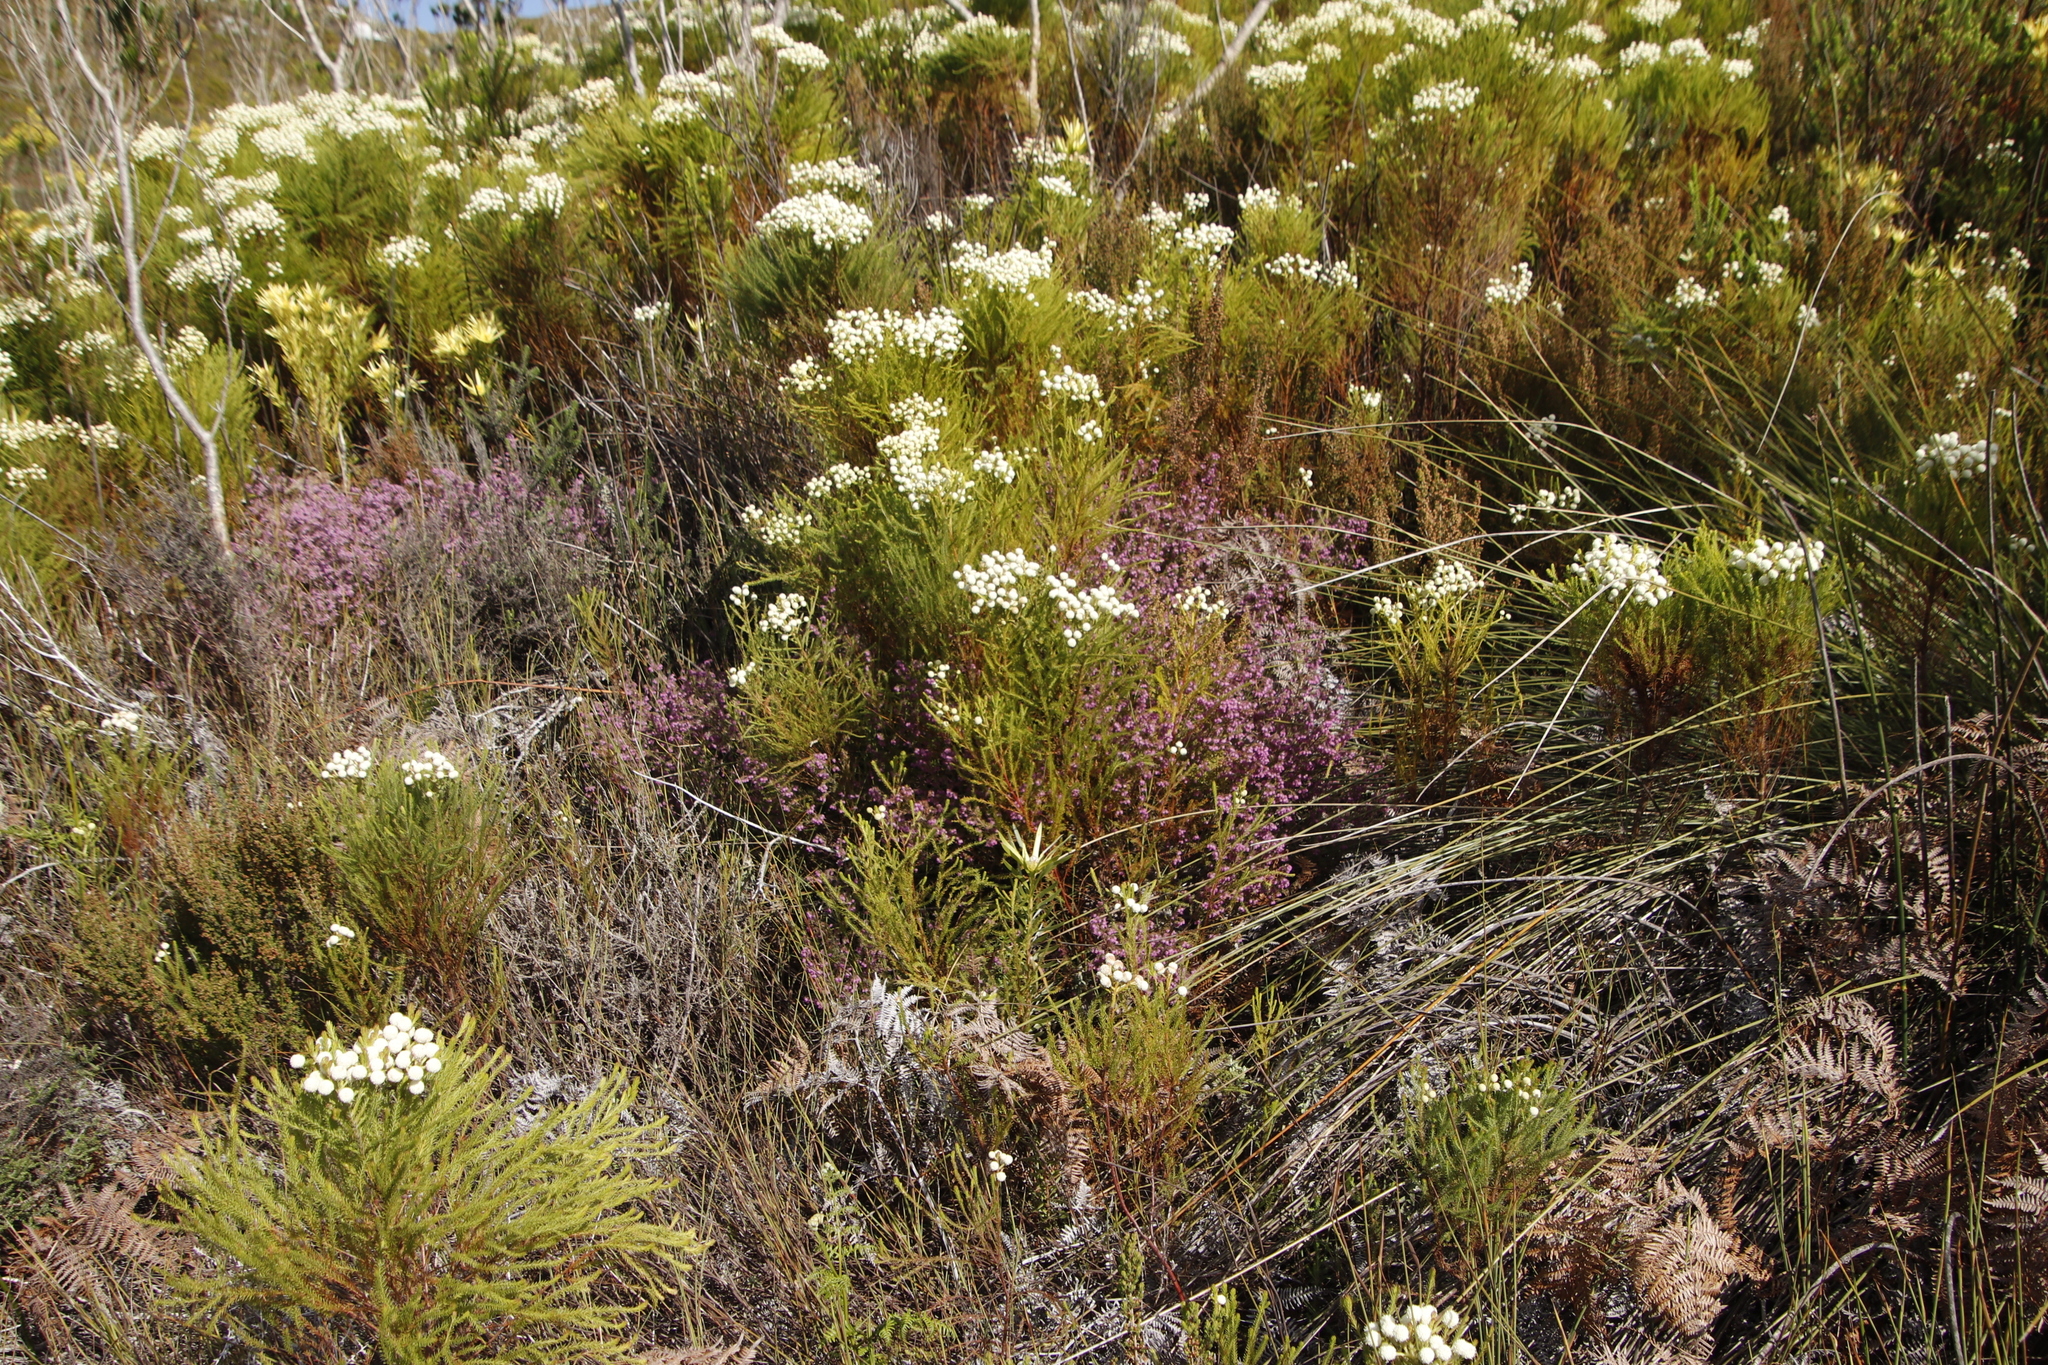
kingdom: Plantae
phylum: Tracheophyta
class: Magnoliopsida
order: Bruniales
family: Bruniaceae
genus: Berzelia
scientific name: Berzelia lanuginosa
